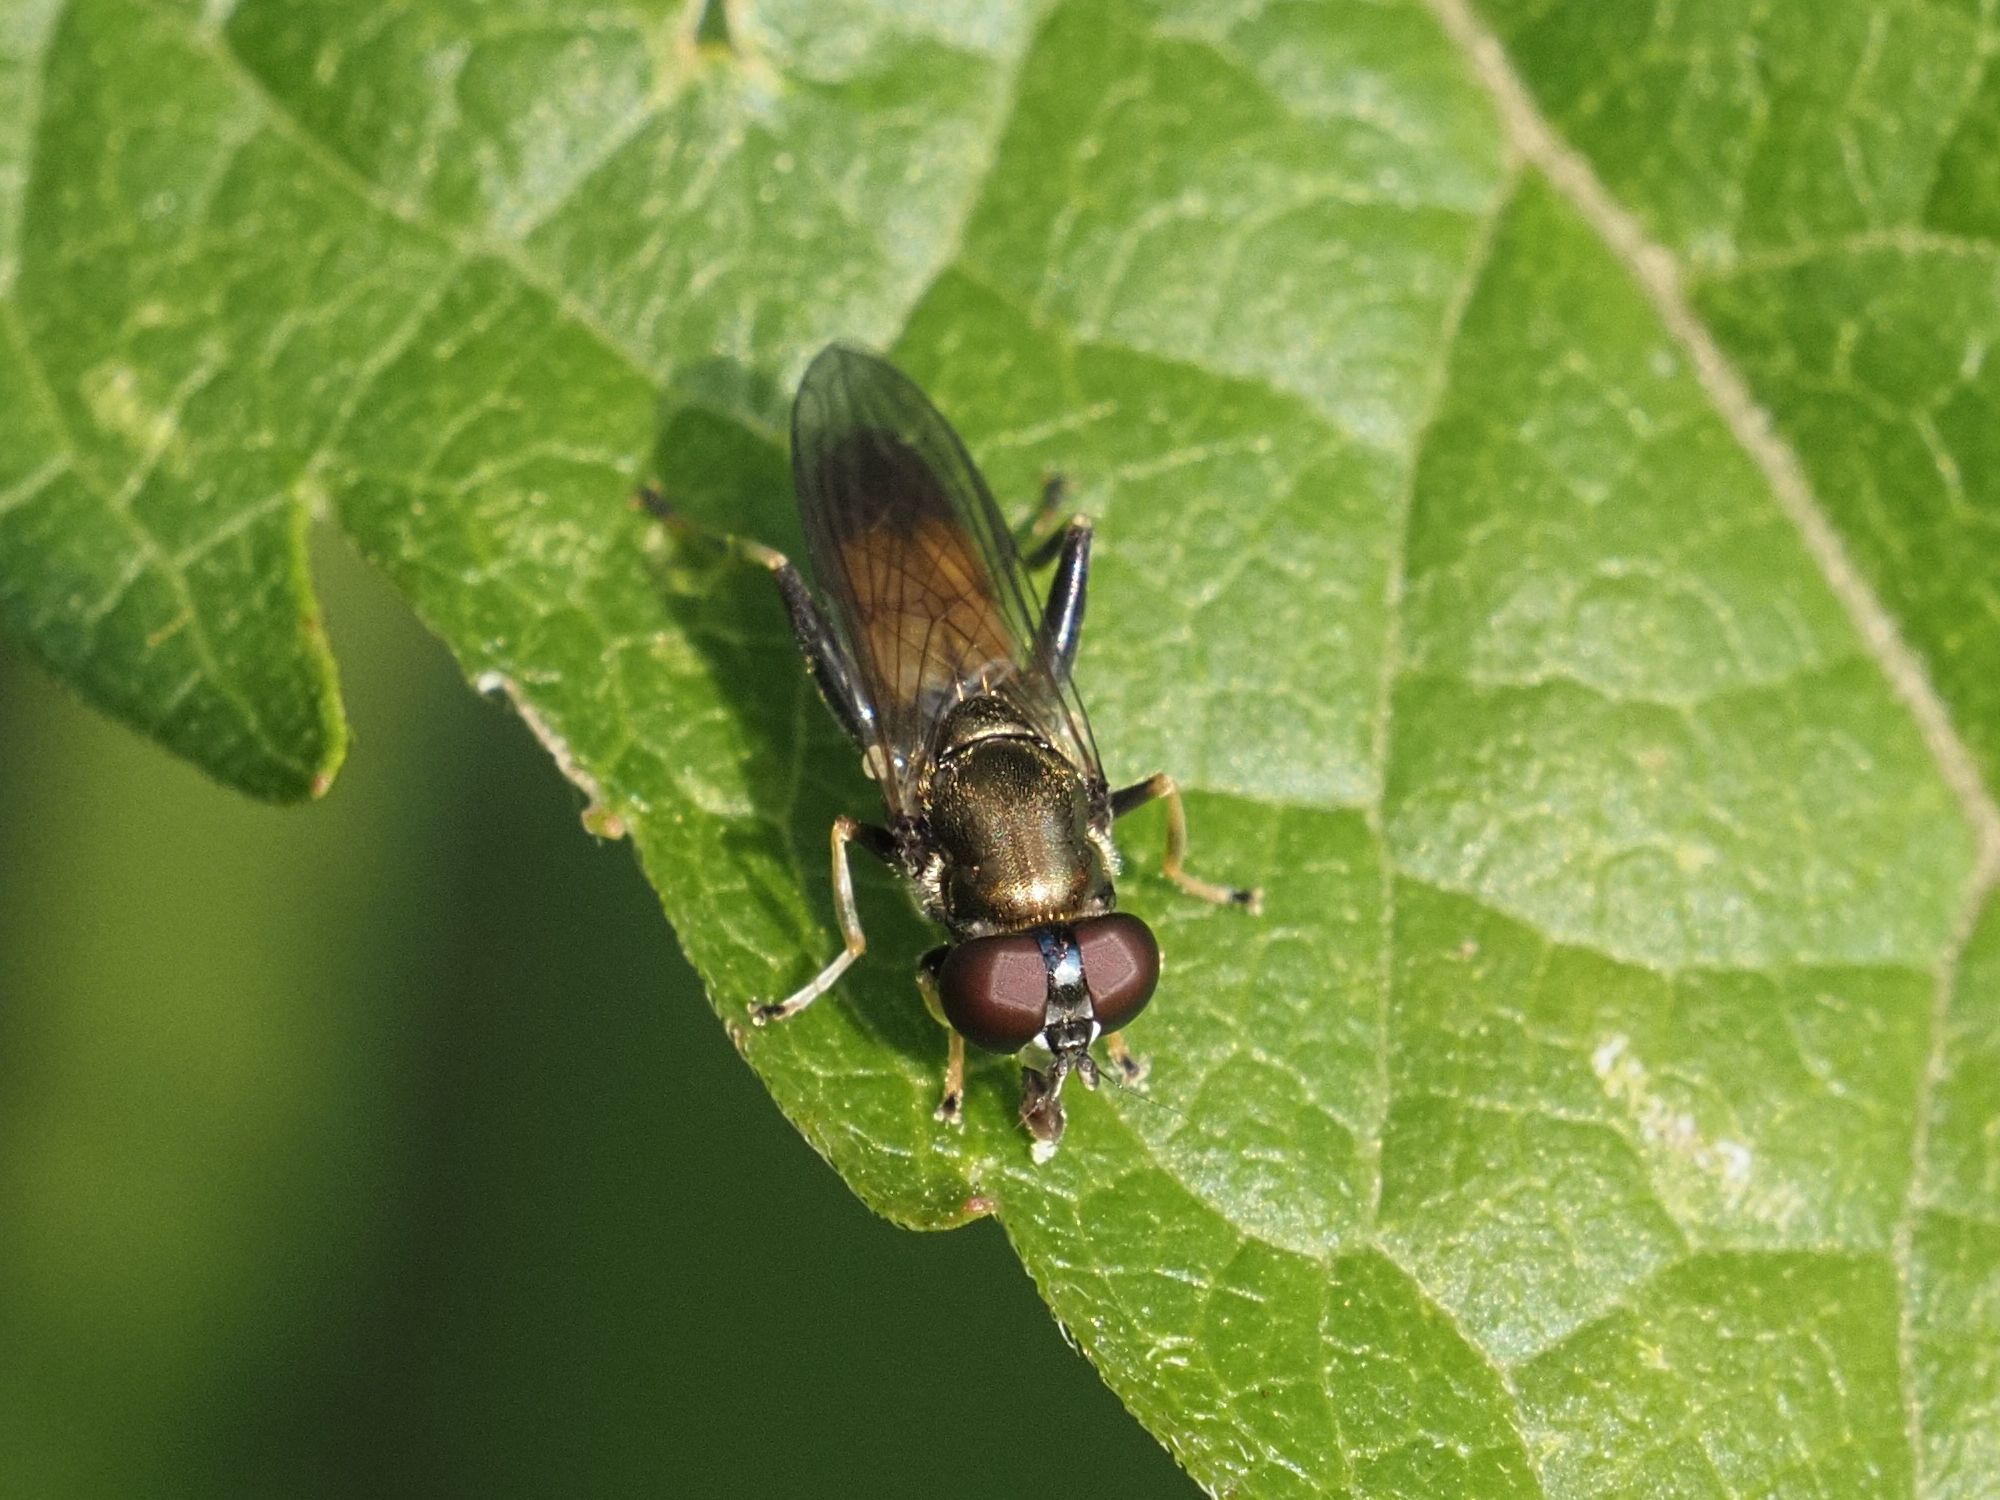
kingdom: Animalia
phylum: Arthropoda
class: Insecta
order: Diptera
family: Syrphidae
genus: Xylota
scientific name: Xylota segnis
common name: Brown-toed forest fly
